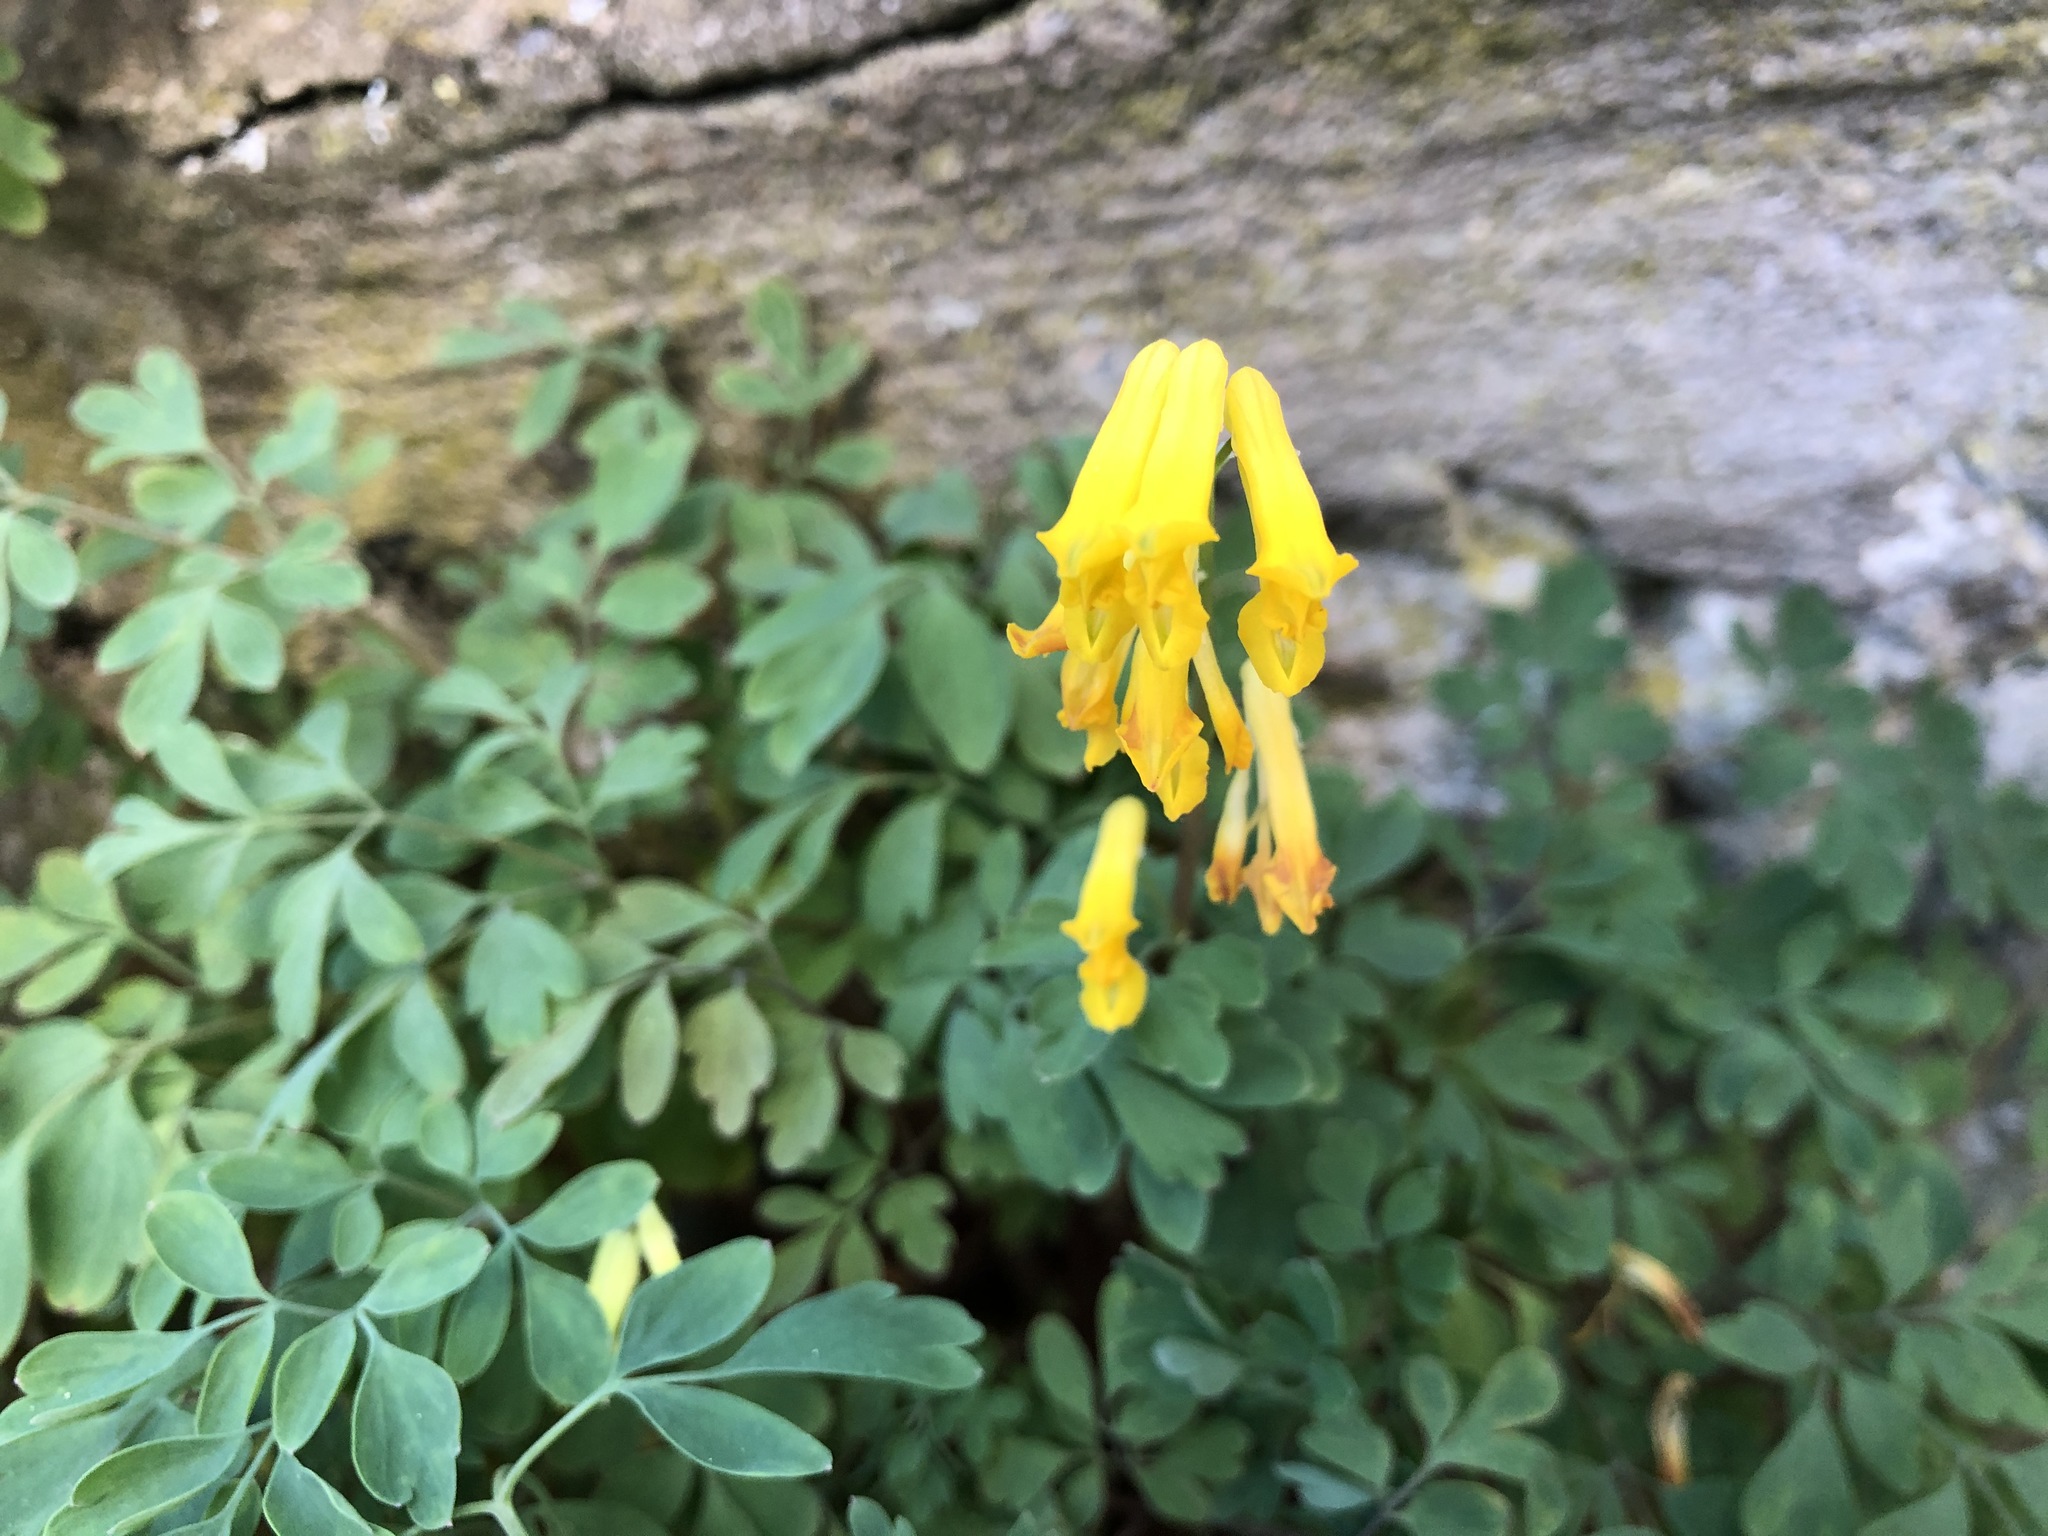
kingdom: Plantae
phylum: Tracheophyta
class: Magnoliopsida
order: Ranunculales
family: Papaveraceae
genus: Pseudofumaria
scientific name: Pseudofumaria lutea
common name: Yellow corydalis
